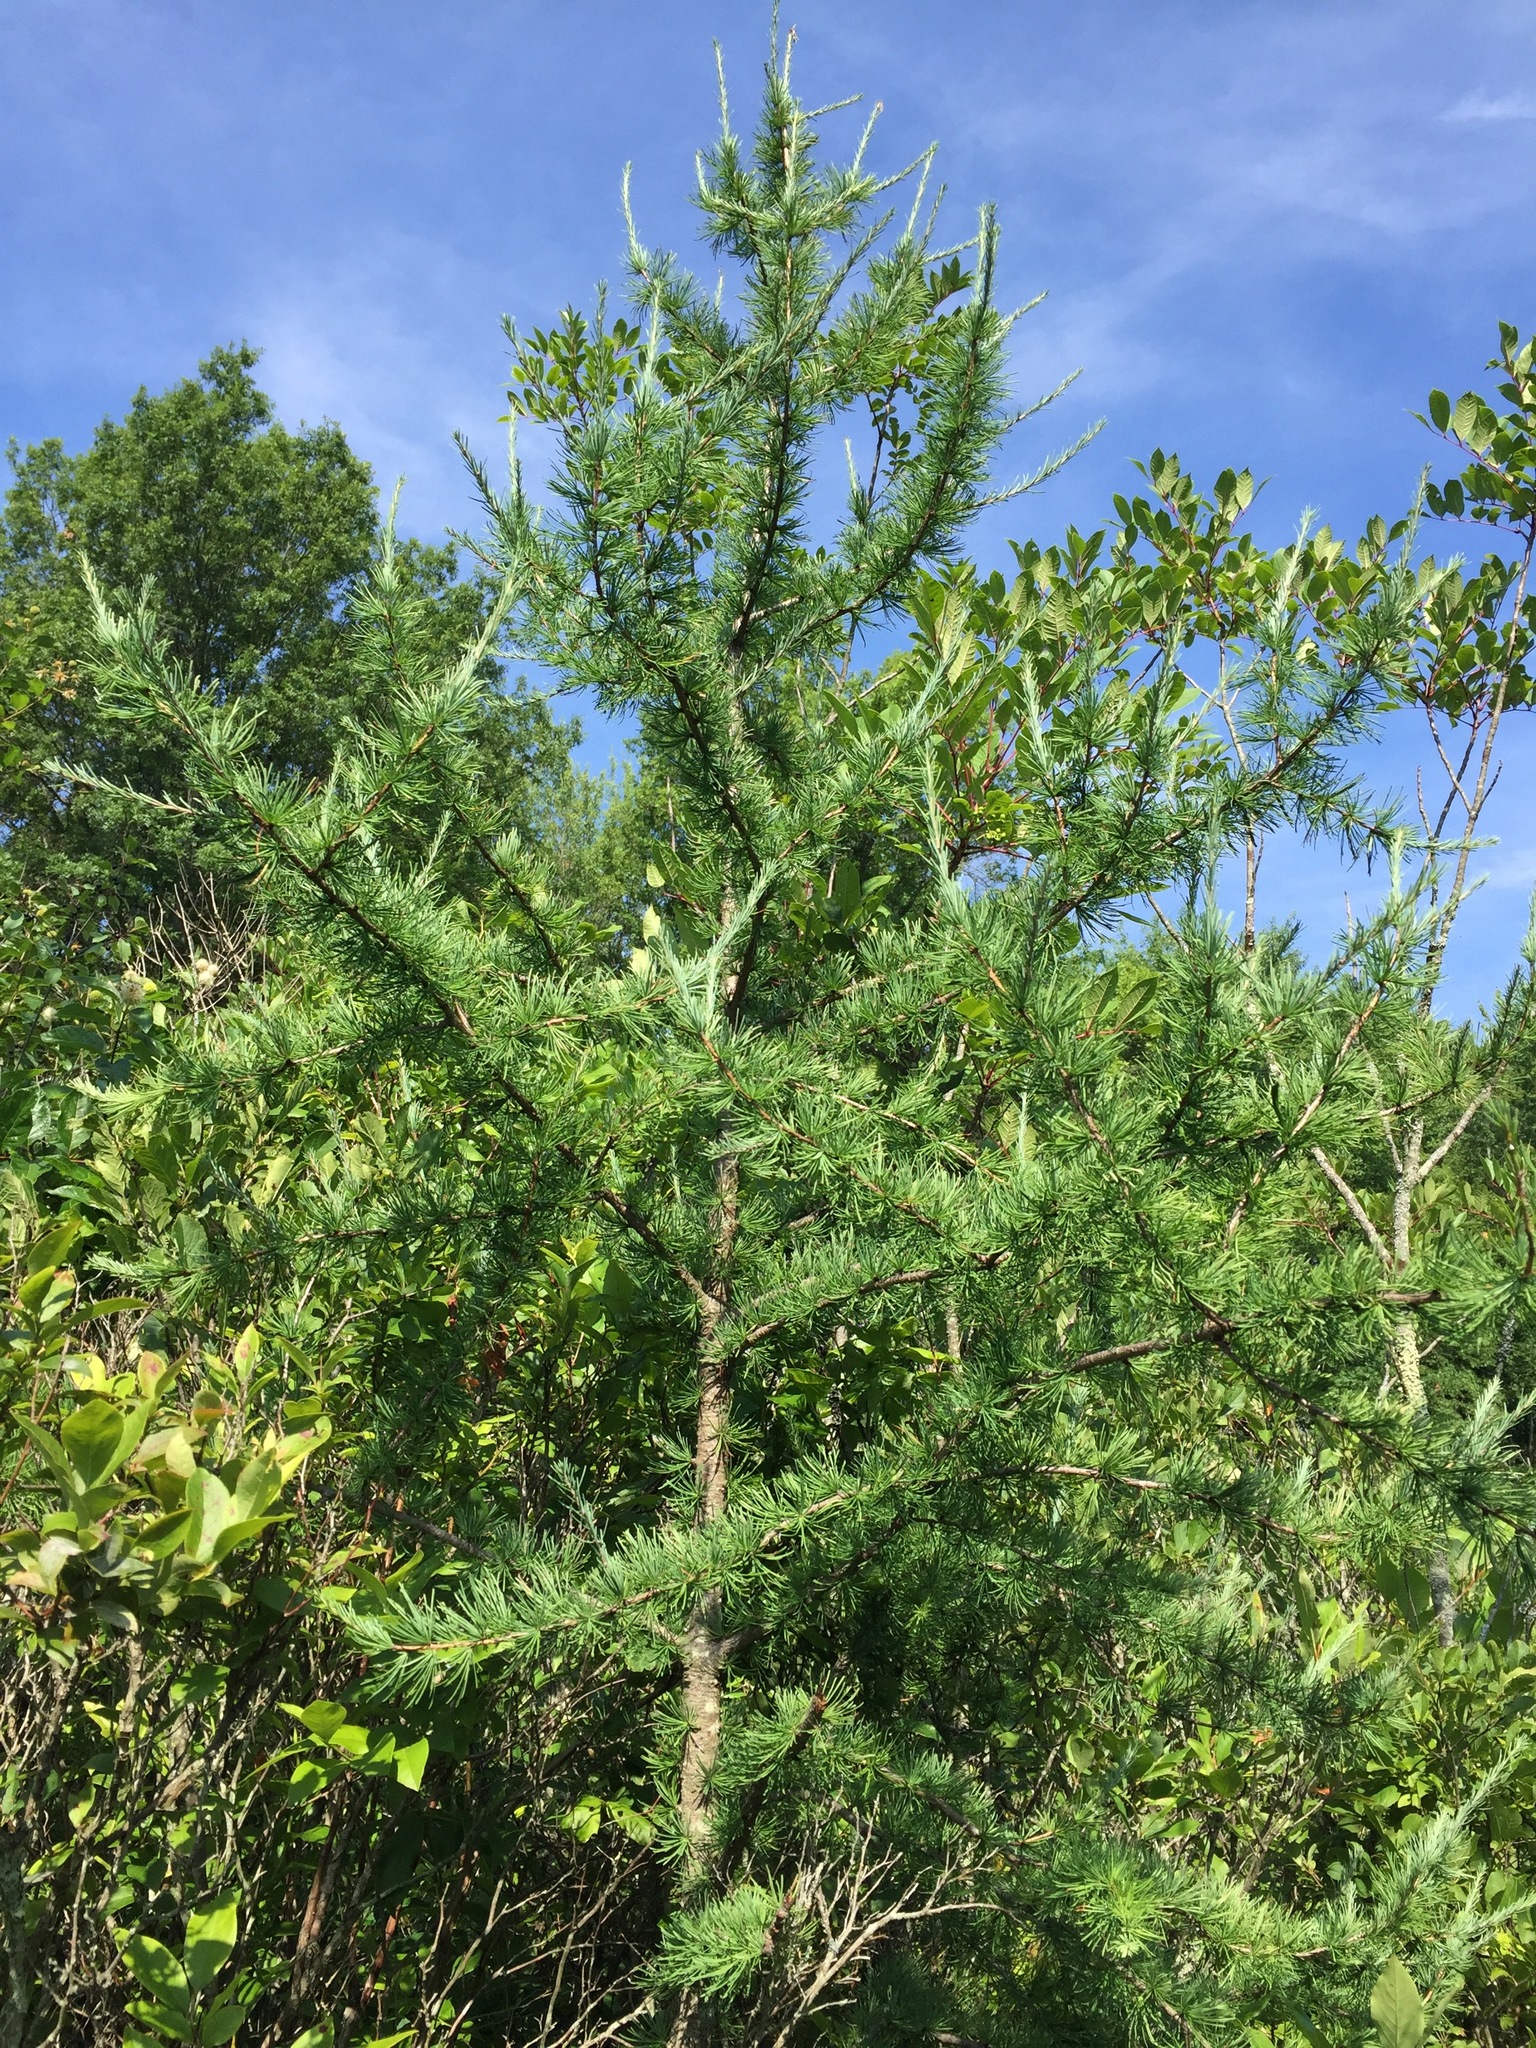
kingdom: Plantae
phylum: Tracheophyta
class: Pinopsida
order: Pinales
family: Pinaceae
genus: Larix
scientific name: Larix laricina
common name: American larch
